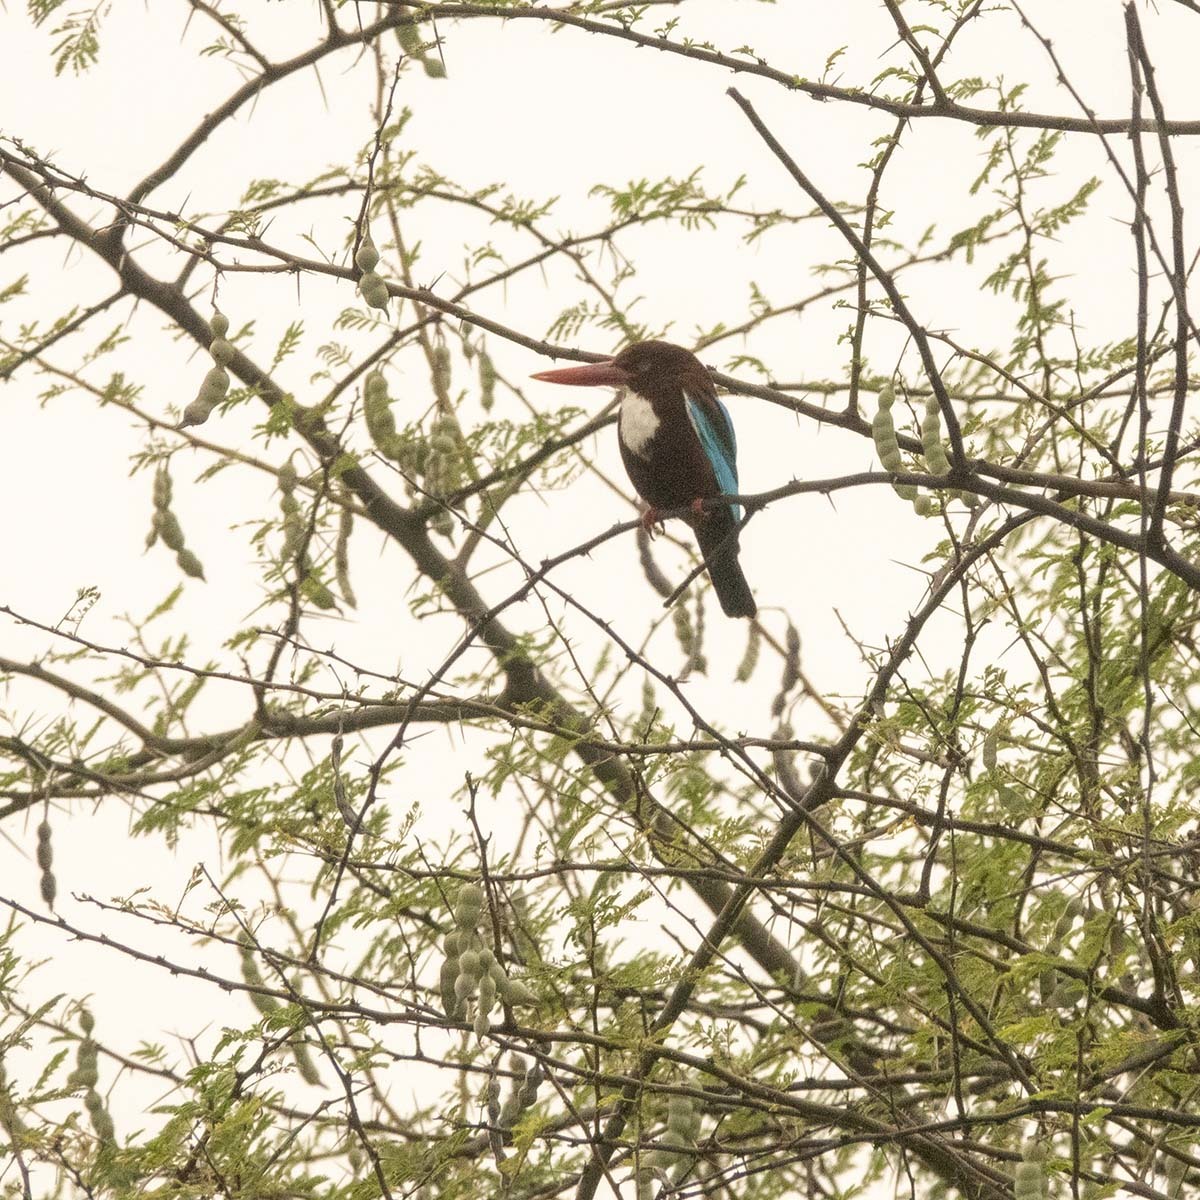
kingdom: Animalia
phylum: Chordata
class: Aves
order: Coraciiformes
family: Alcedinidae
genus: Halcyon
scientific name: Halcyon smyrnensis
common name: White-throated kingfisher
